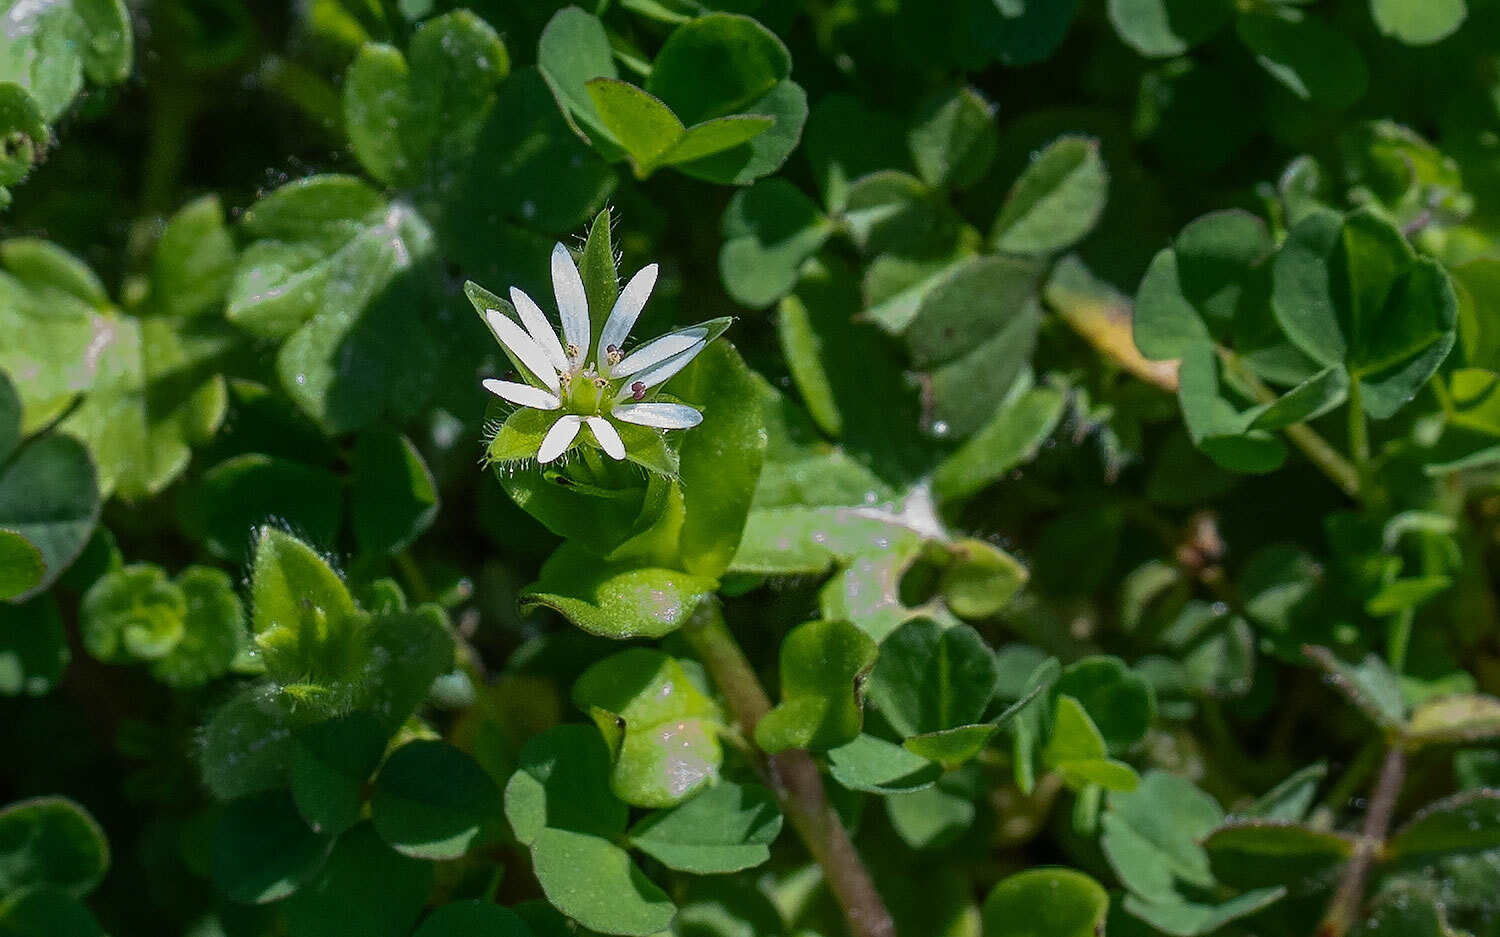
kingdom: Plantae
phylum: Tracheophyta
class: Magnoliopsida
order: Caryophyllales
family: Caryophyllaceae
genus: Stellaria
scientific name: Stellaria pubera
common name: Star chickweed
